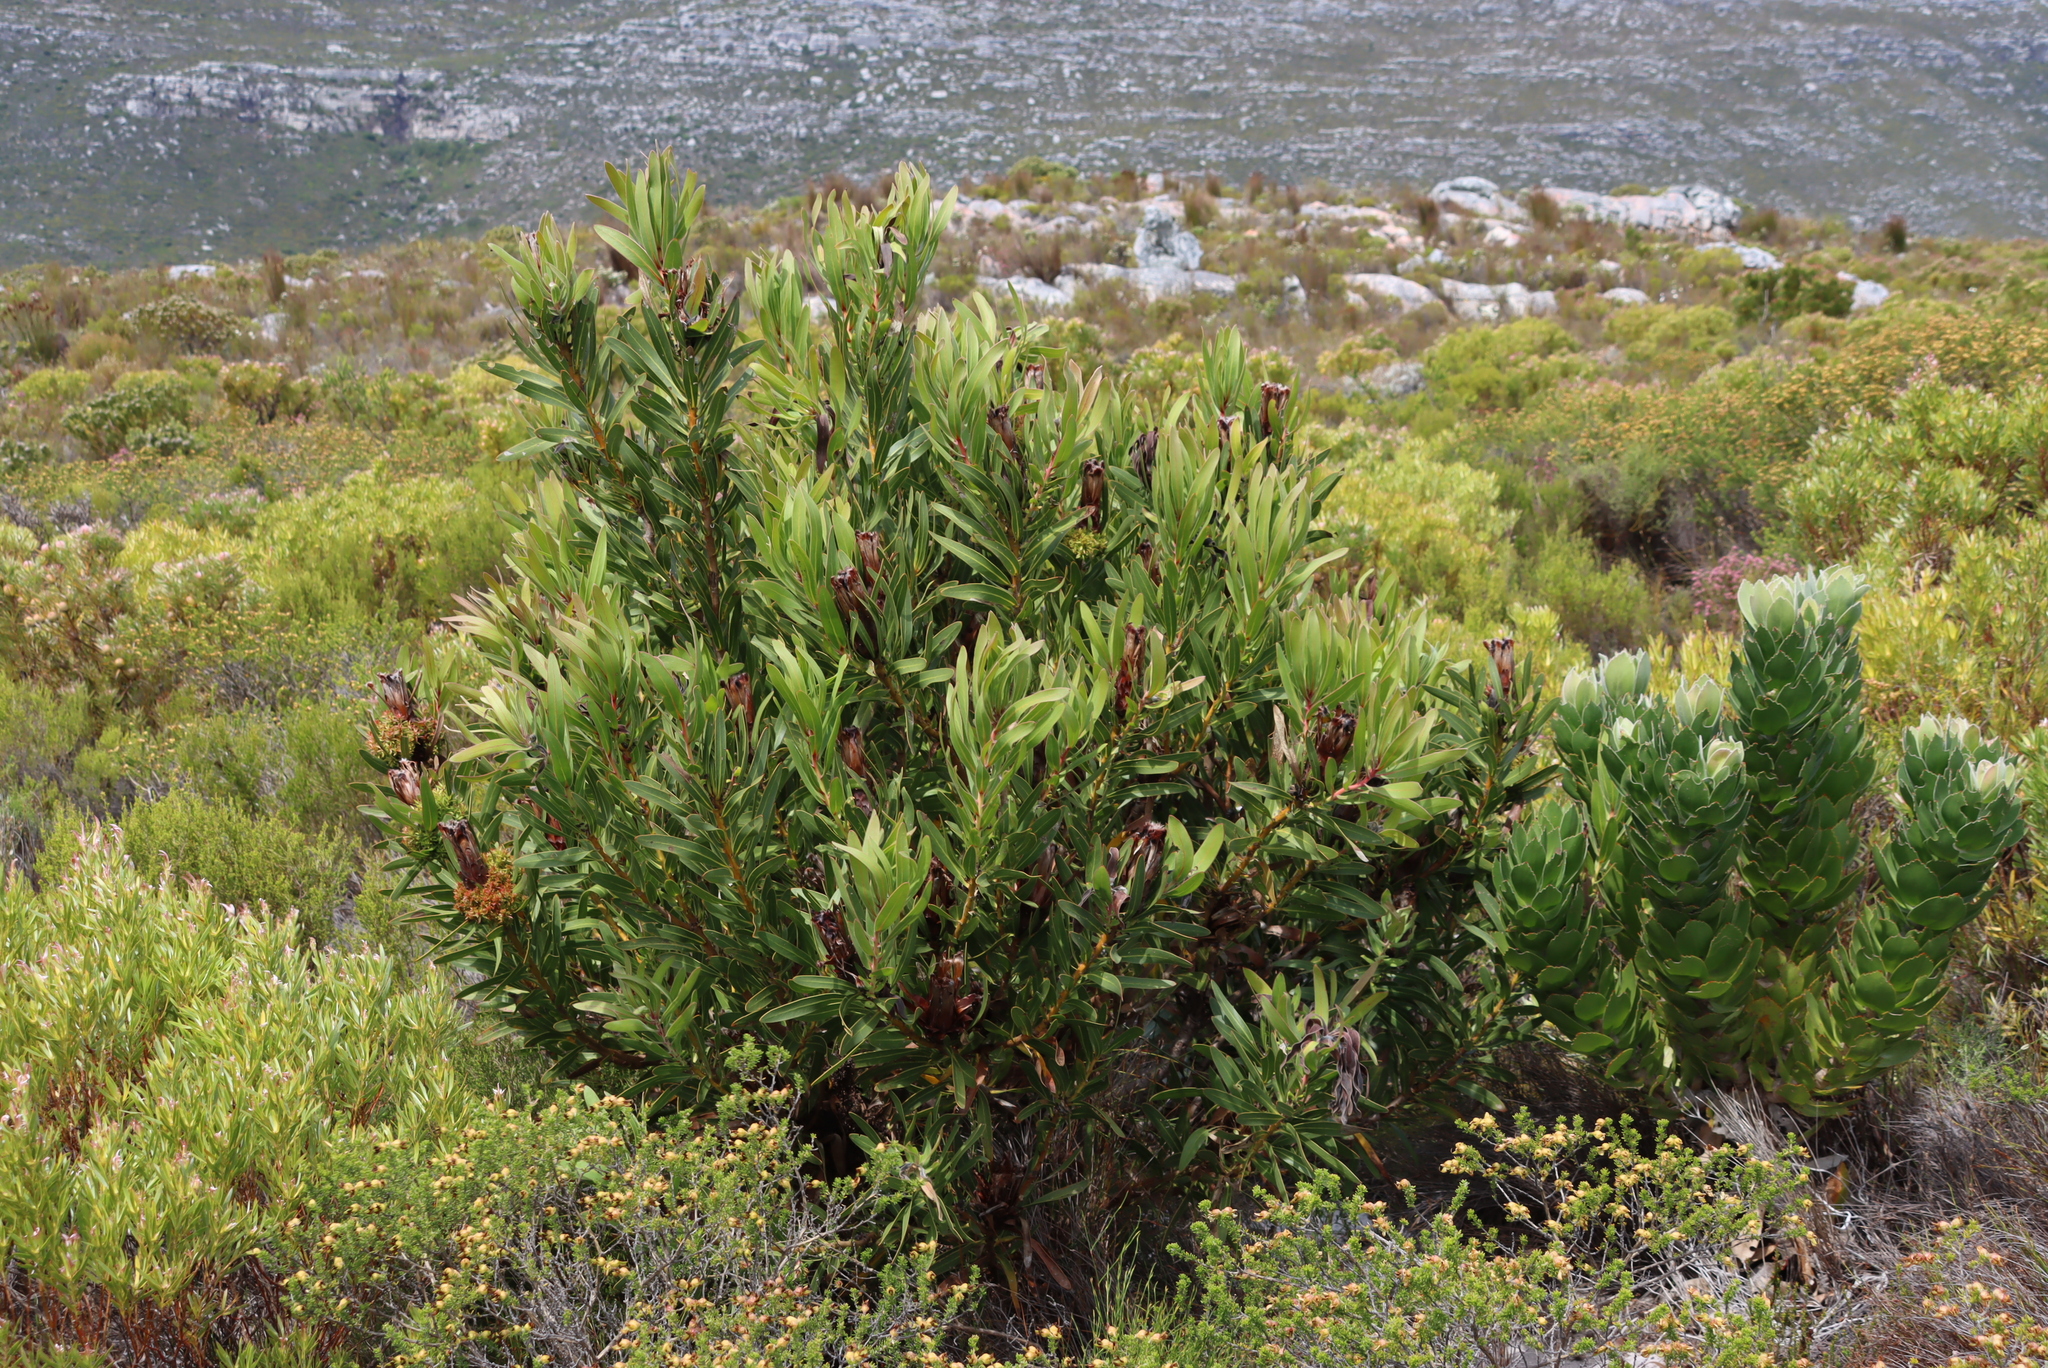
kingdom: Plantae
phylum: Tracheophyta
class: Magnoliopsida
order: Proteales
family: Proteaceae
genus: Protea
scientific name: Protea lepidocarpodendron
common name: Black-bearded protea
